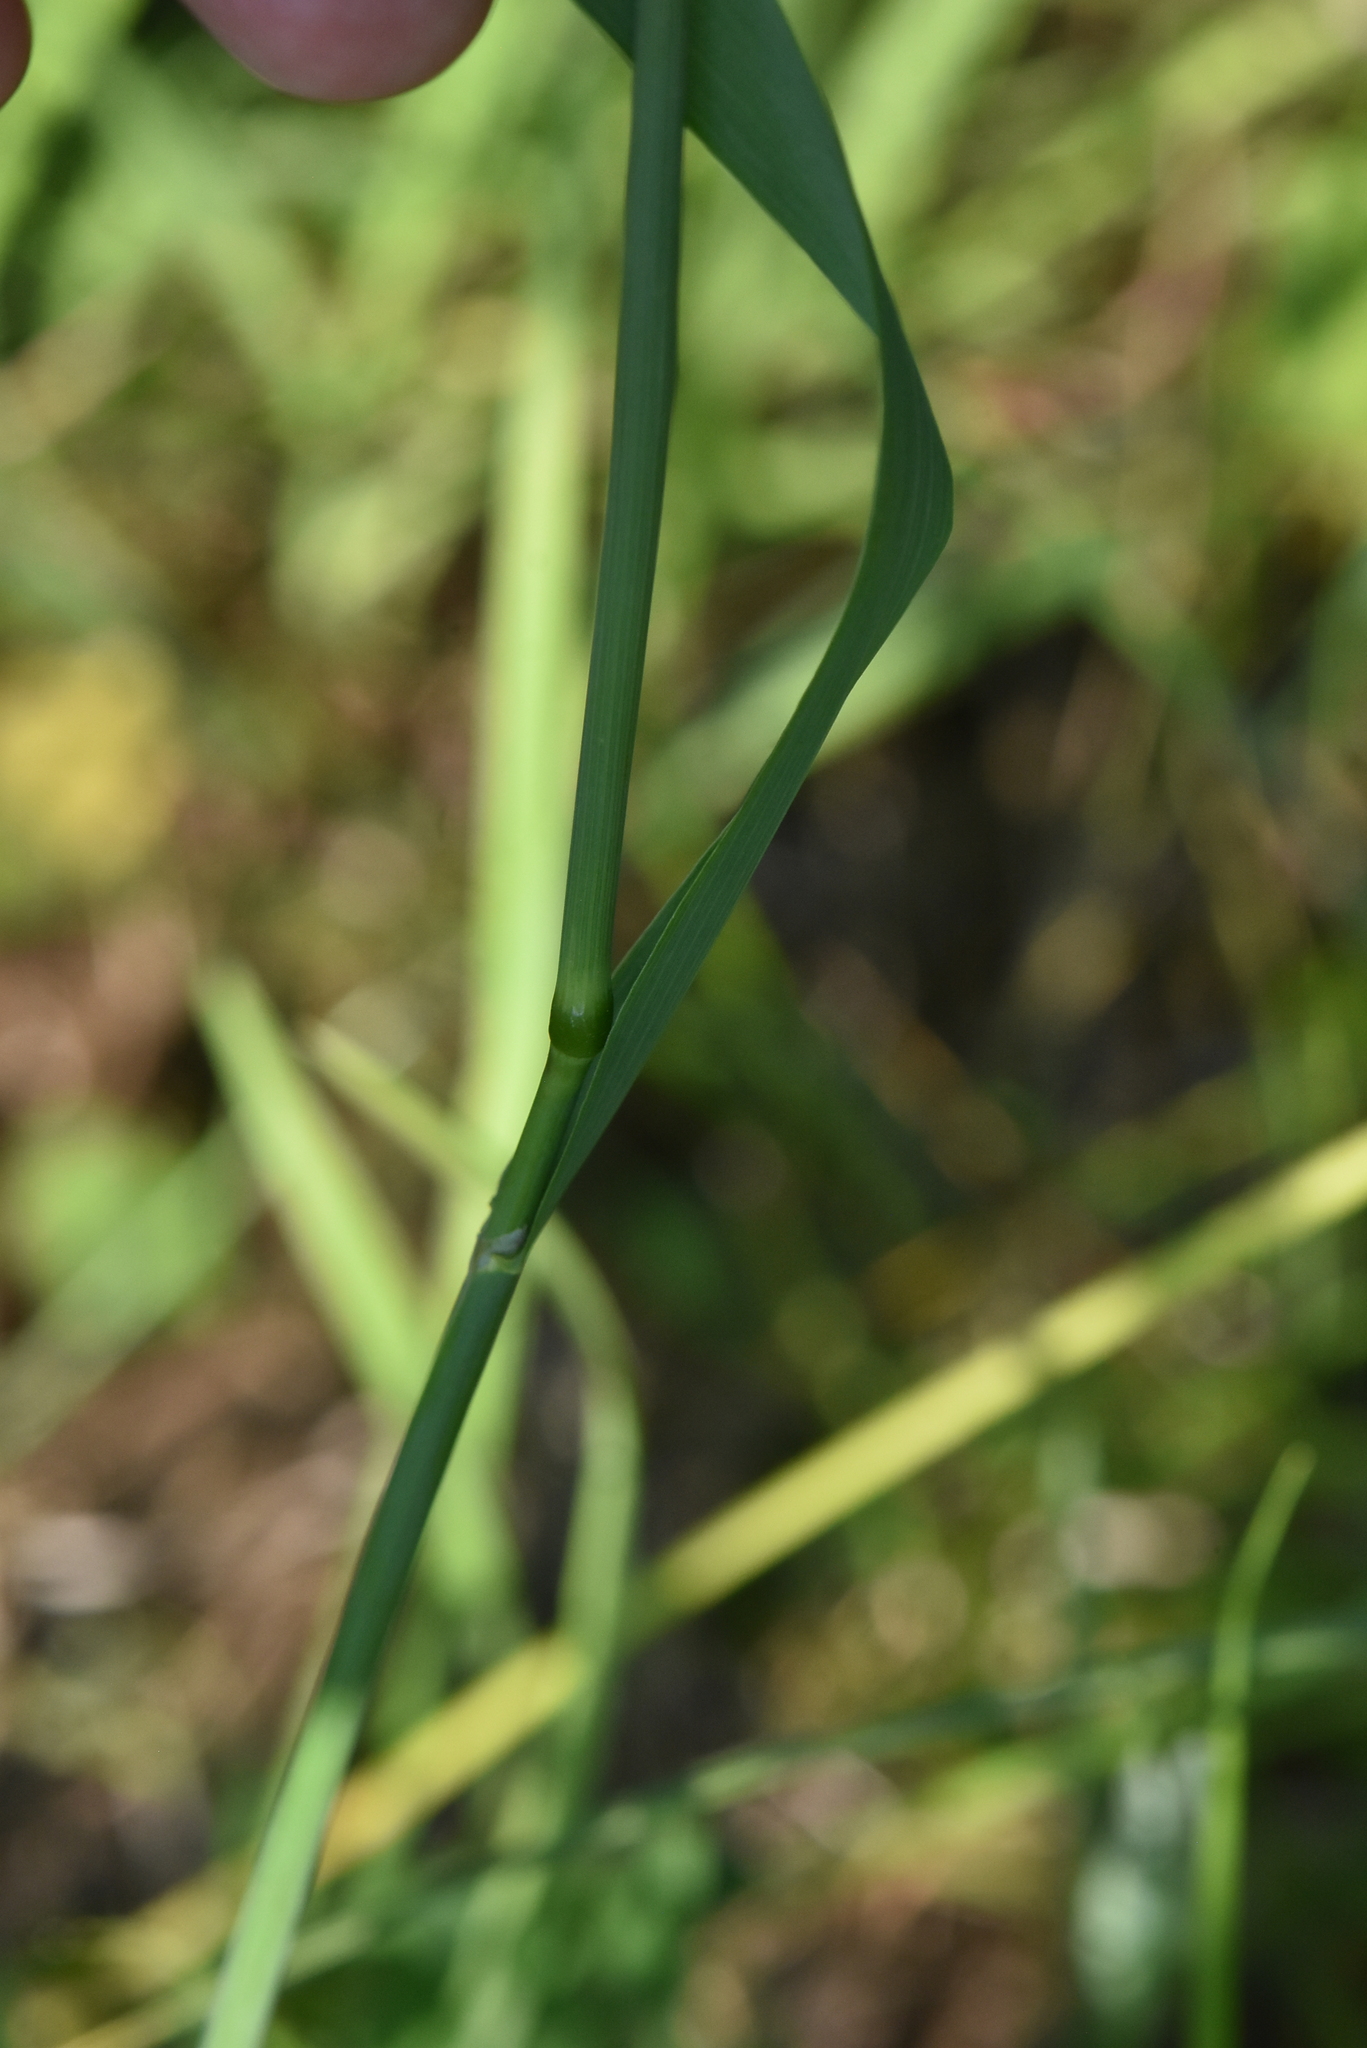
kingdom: Plantae
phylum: Tracheophyta
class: Liliopsida
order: Poales
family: Poaceae
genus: Phleum
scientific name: Phleum pratense
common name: Timothy grass
